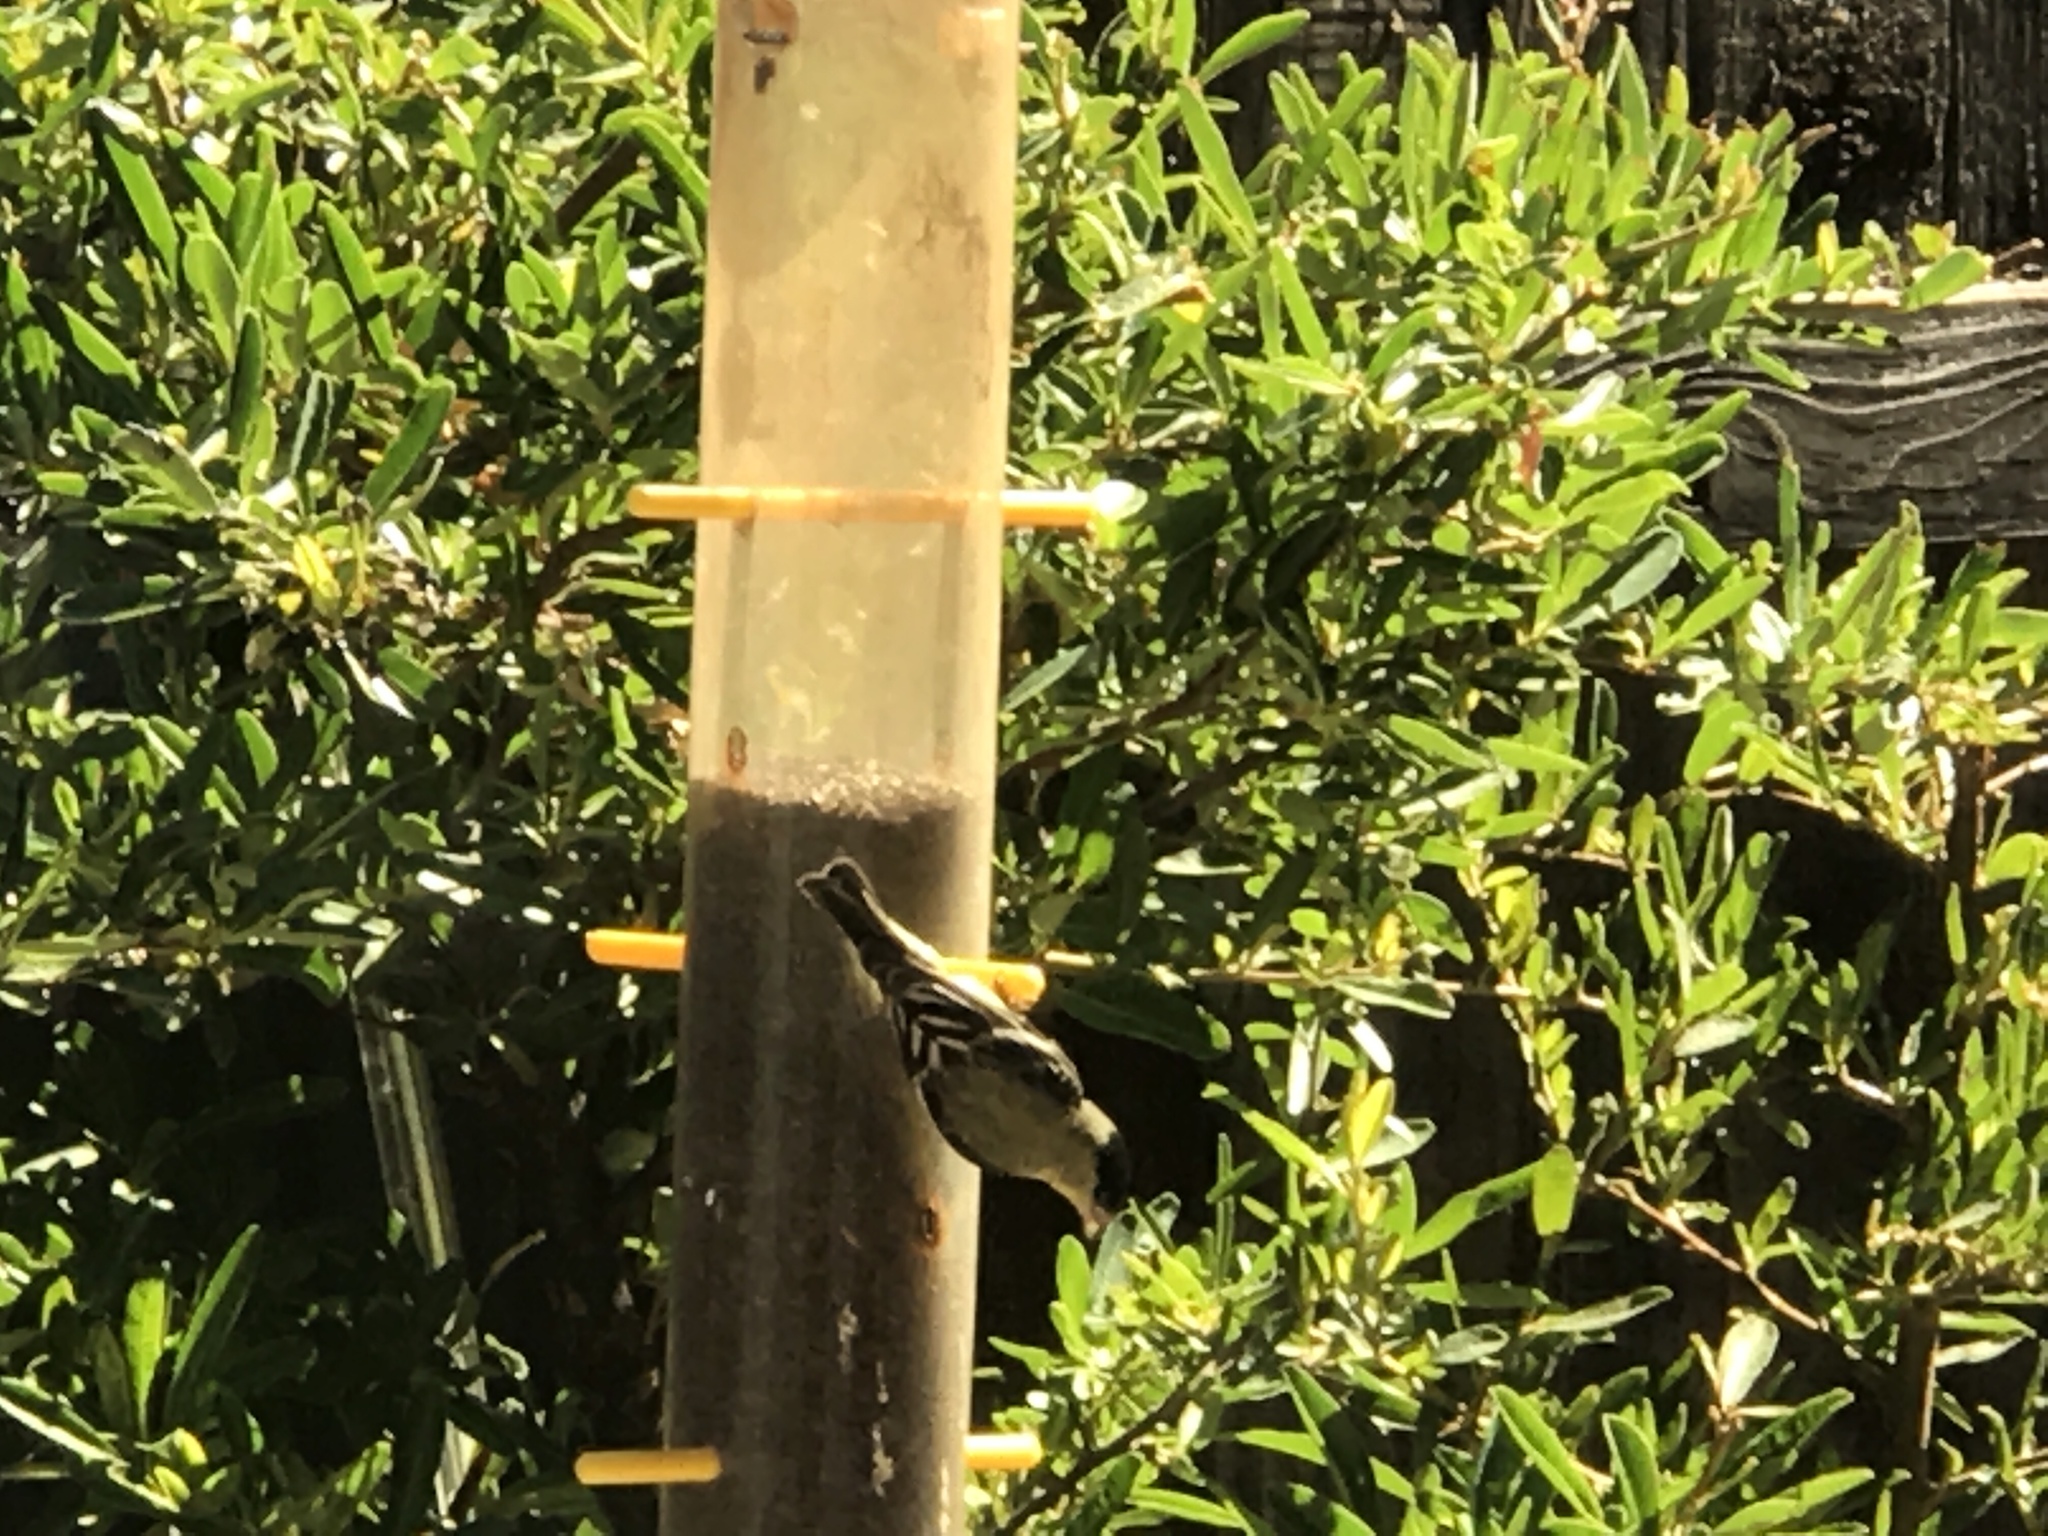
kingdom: Animalia
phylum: Chordata
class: Aves
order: Passeriformes
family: Fringillidae
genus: Spinus
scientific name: Spinus psaltria
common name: Lesser goldfinch
